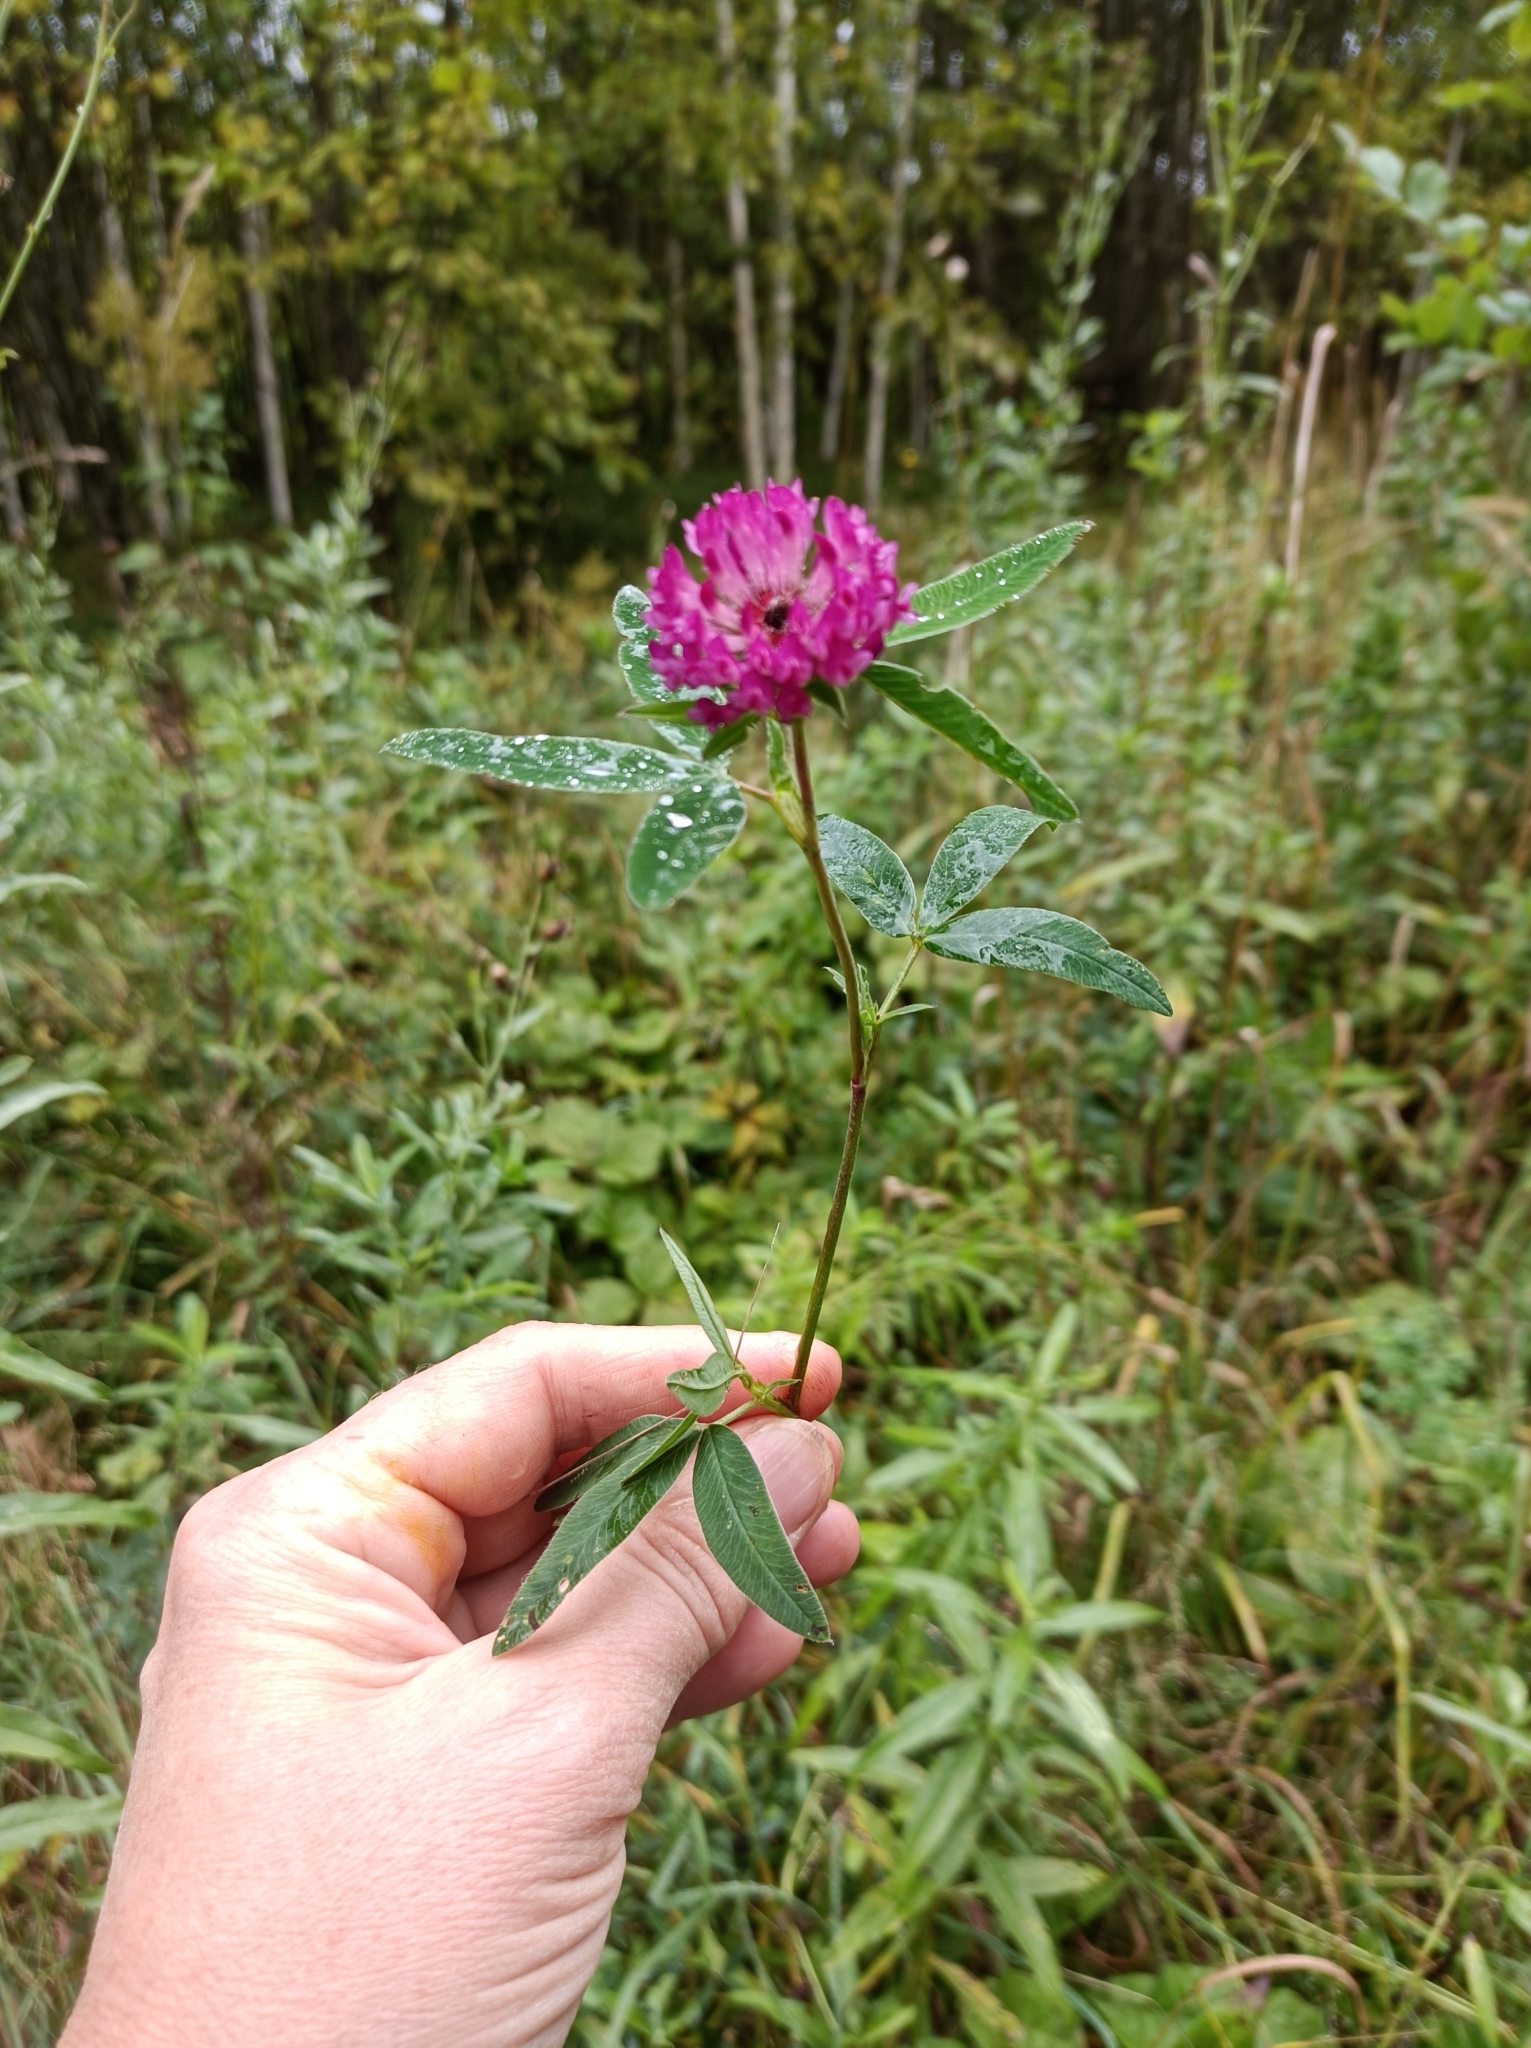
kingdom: Plantae
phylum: Tracheophyta
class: Magnoliopsida
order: Fabales
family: Fabaceae
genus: Trifolium
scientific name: Trifolium pratense
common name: Red clover
